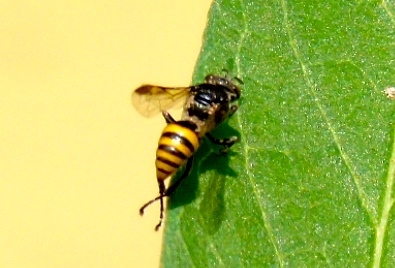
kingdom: Animalia
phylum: Arthropoda
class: Insecta
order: Hymenoptera
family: Crabronidae
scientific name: Crabronidae
